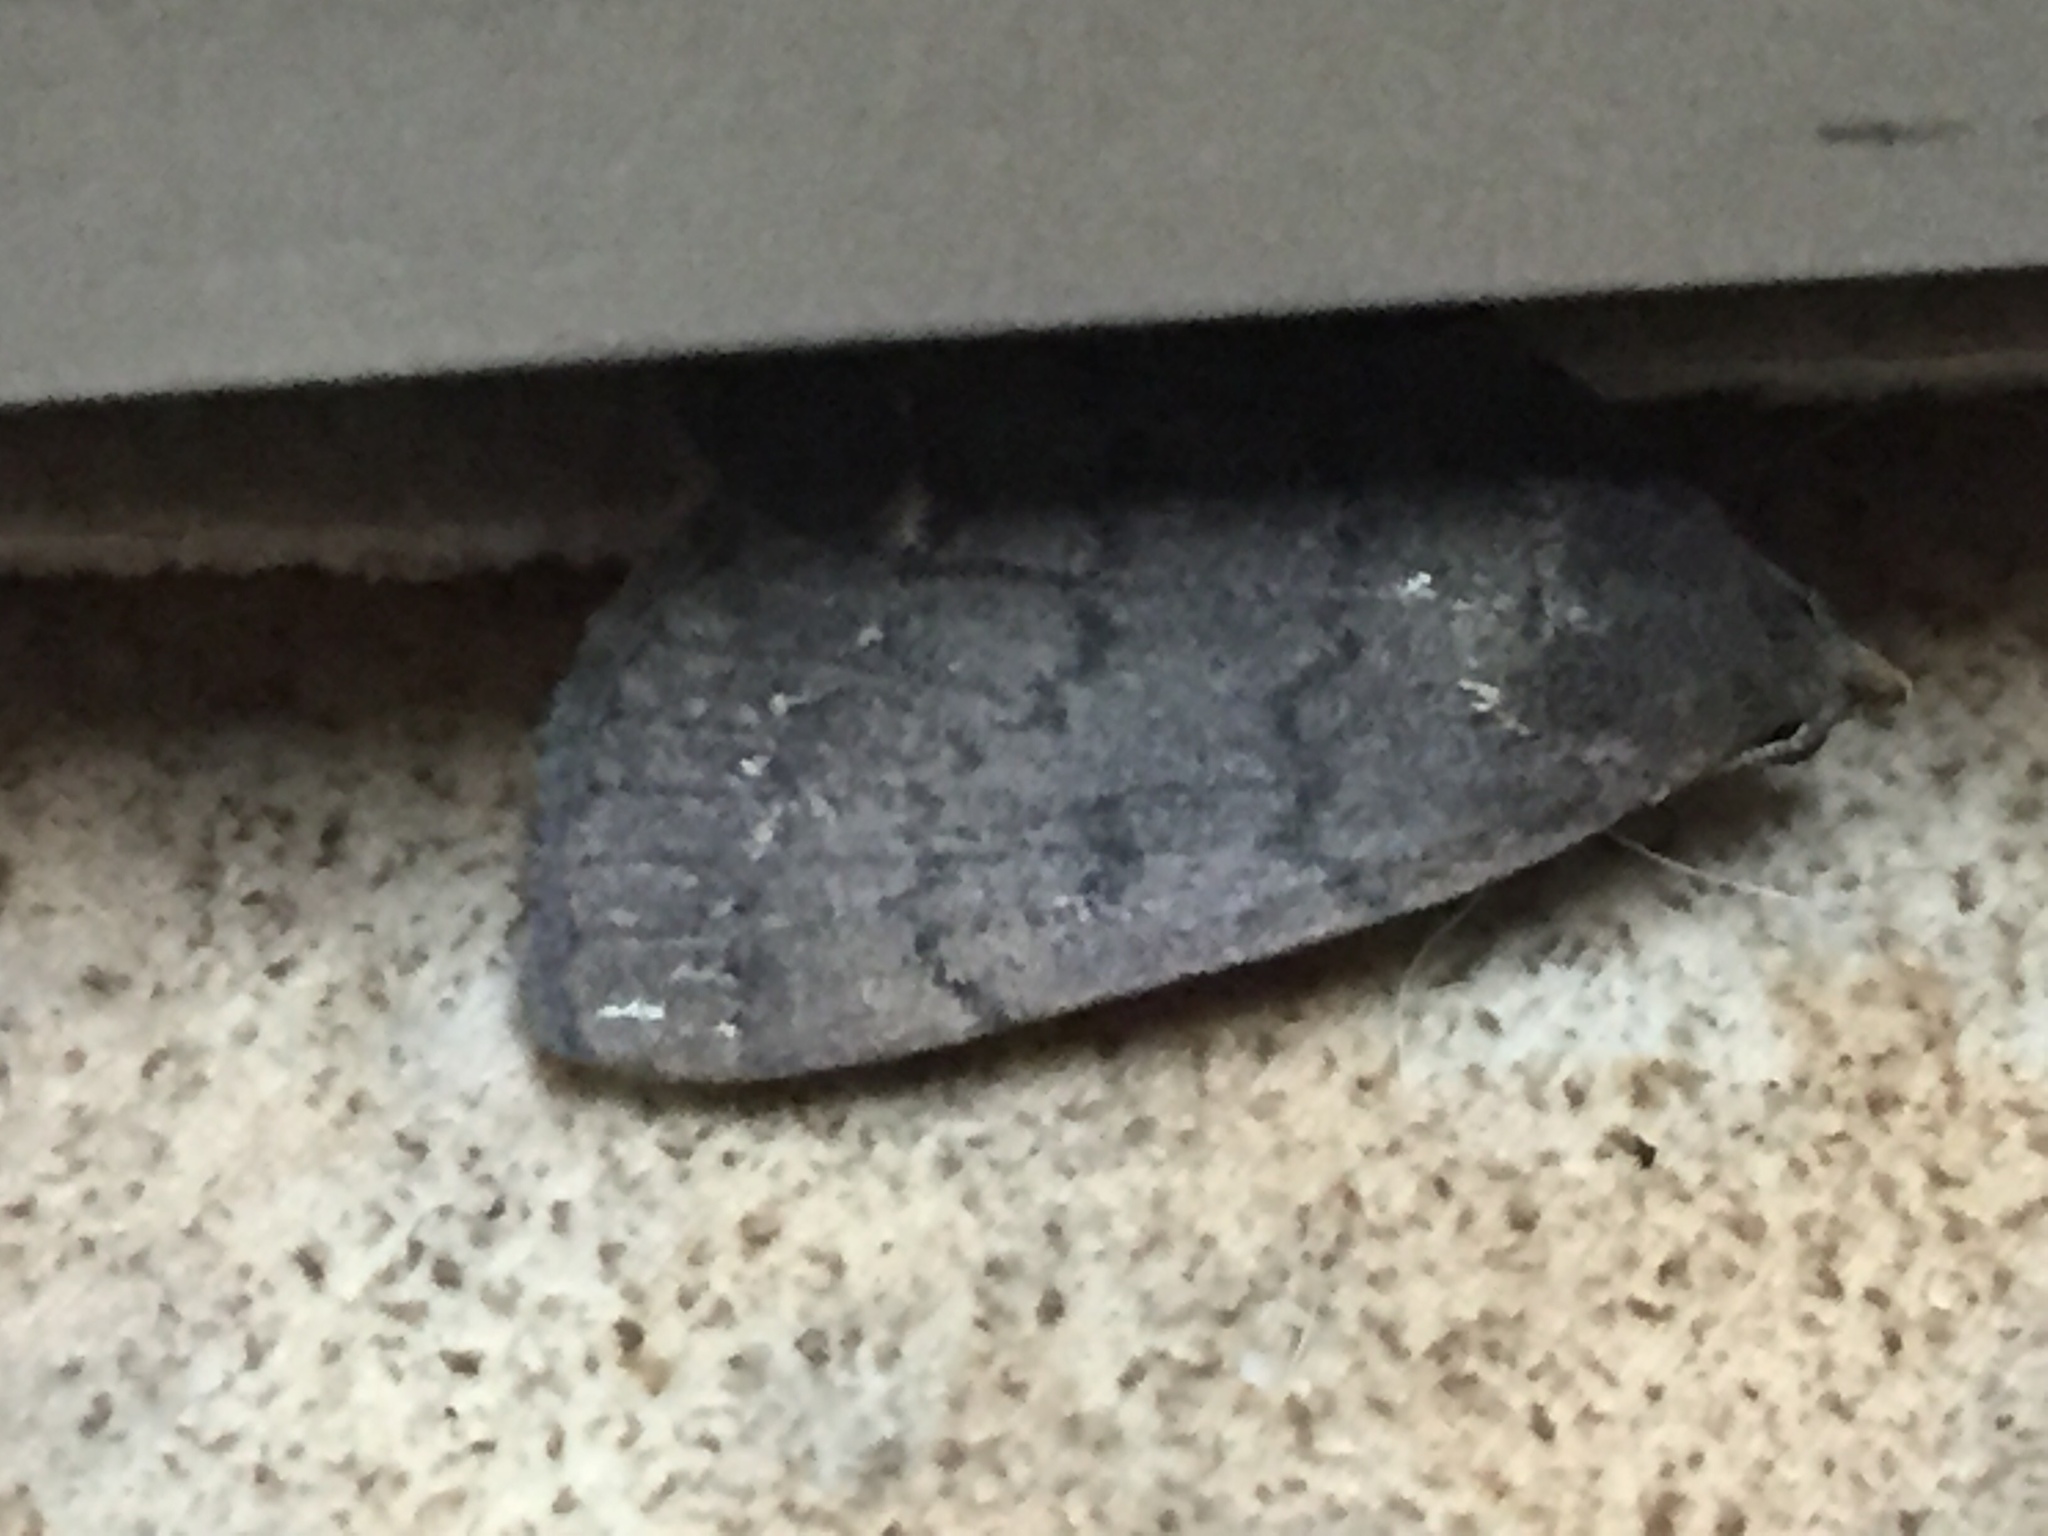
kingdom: Animalia
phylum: Arthropoda
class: Insecta
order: Lepidoptera
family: Erebidae
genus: Nodaria
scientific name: Nodaria nodosalis
